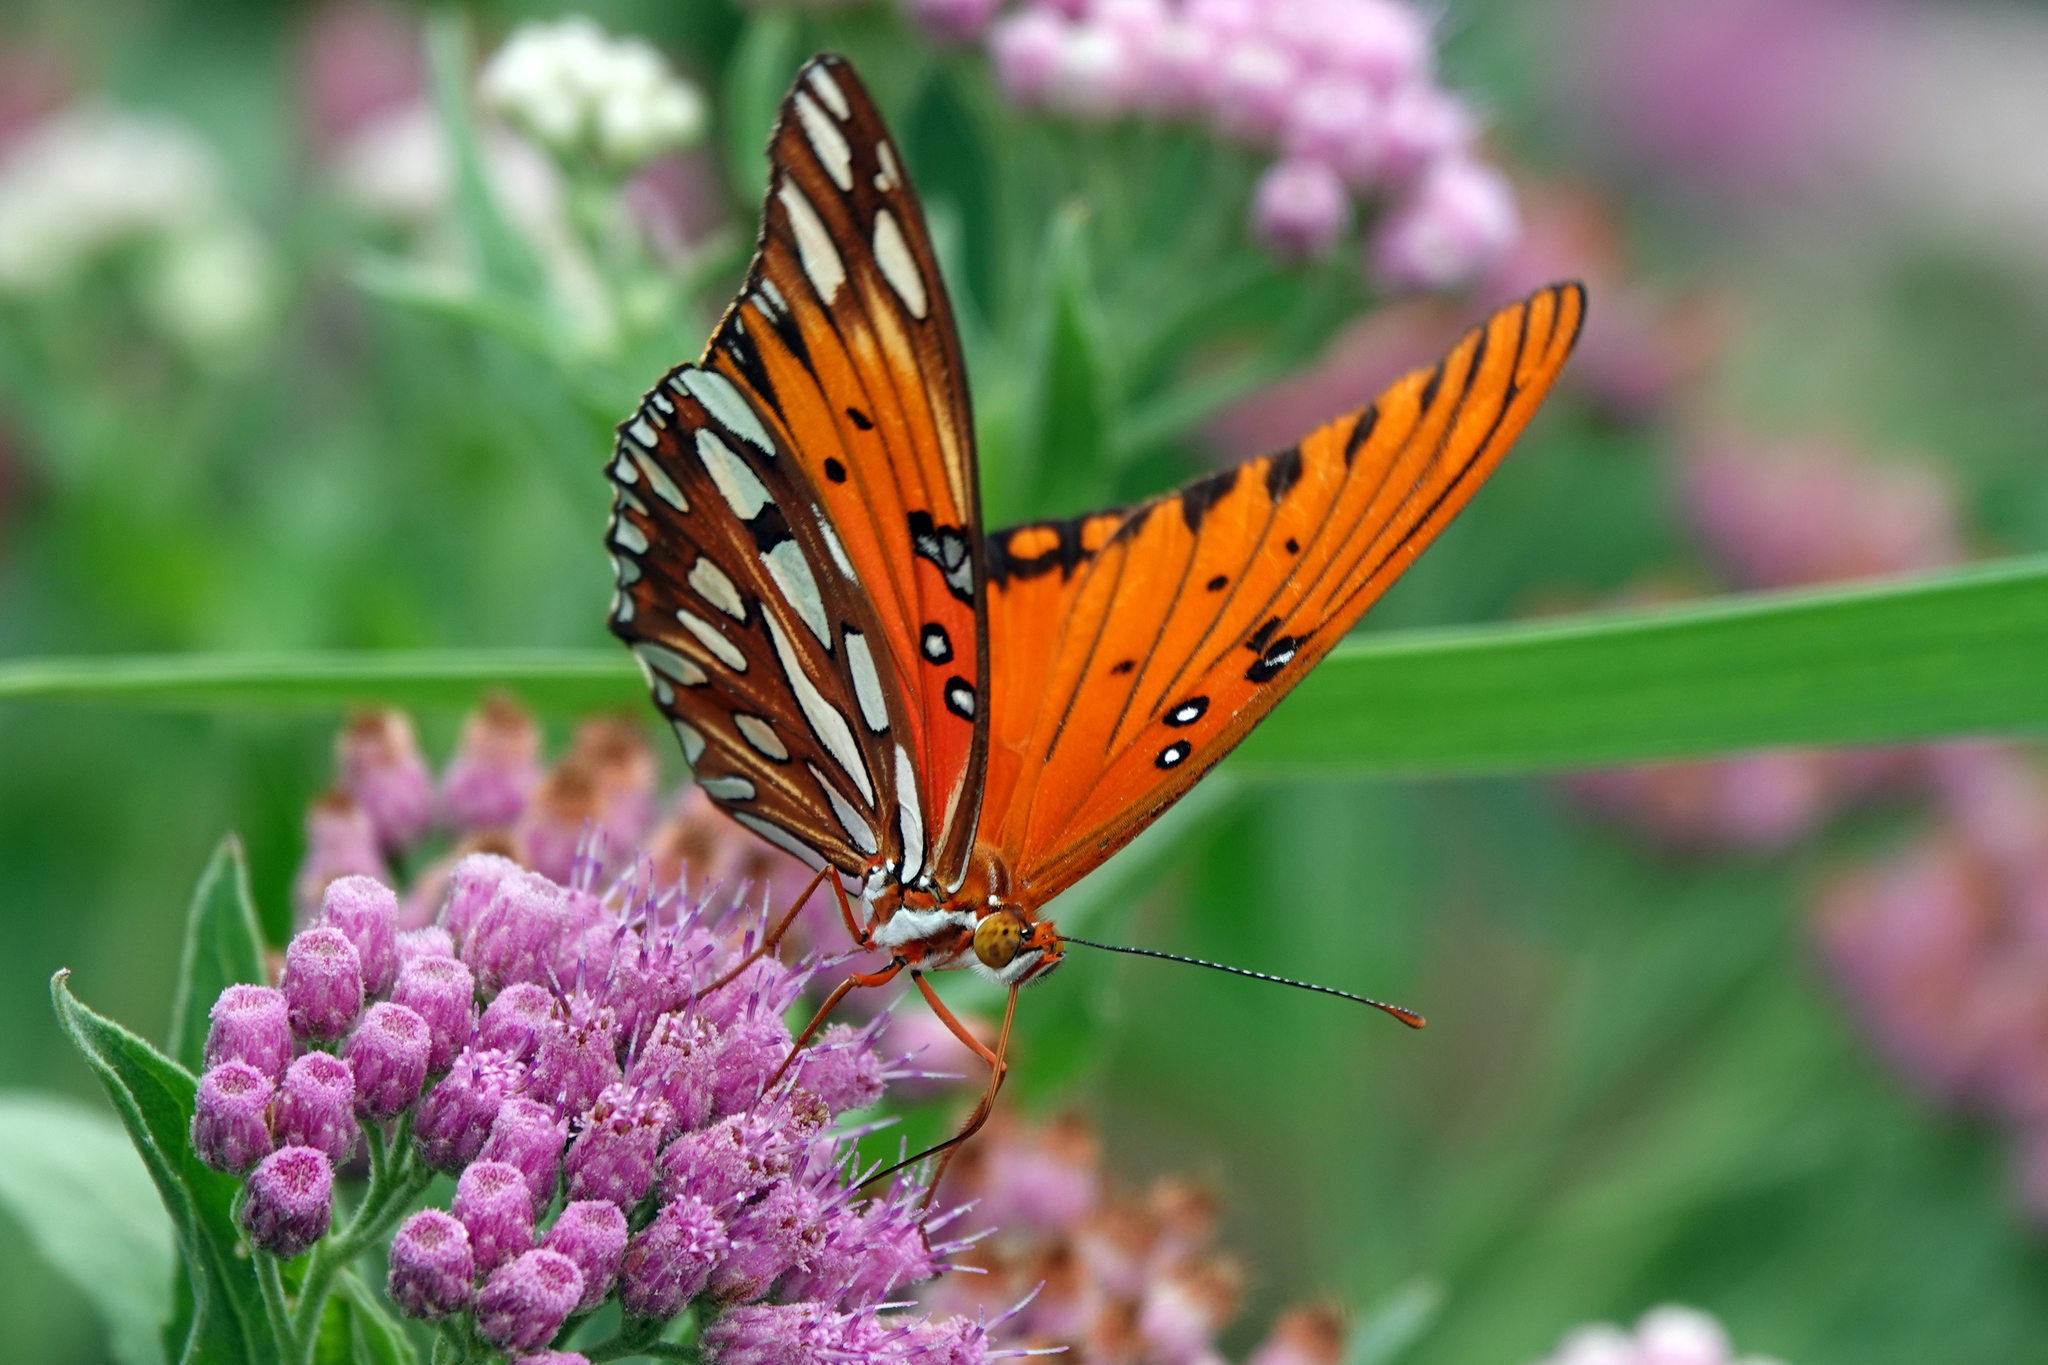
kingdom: Animalia
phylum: Arthropoda
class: Insecta
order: Lepidoptera
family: Nymphalidae
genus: Dione
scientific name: Dione vanillae
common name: Gulf fritillary
